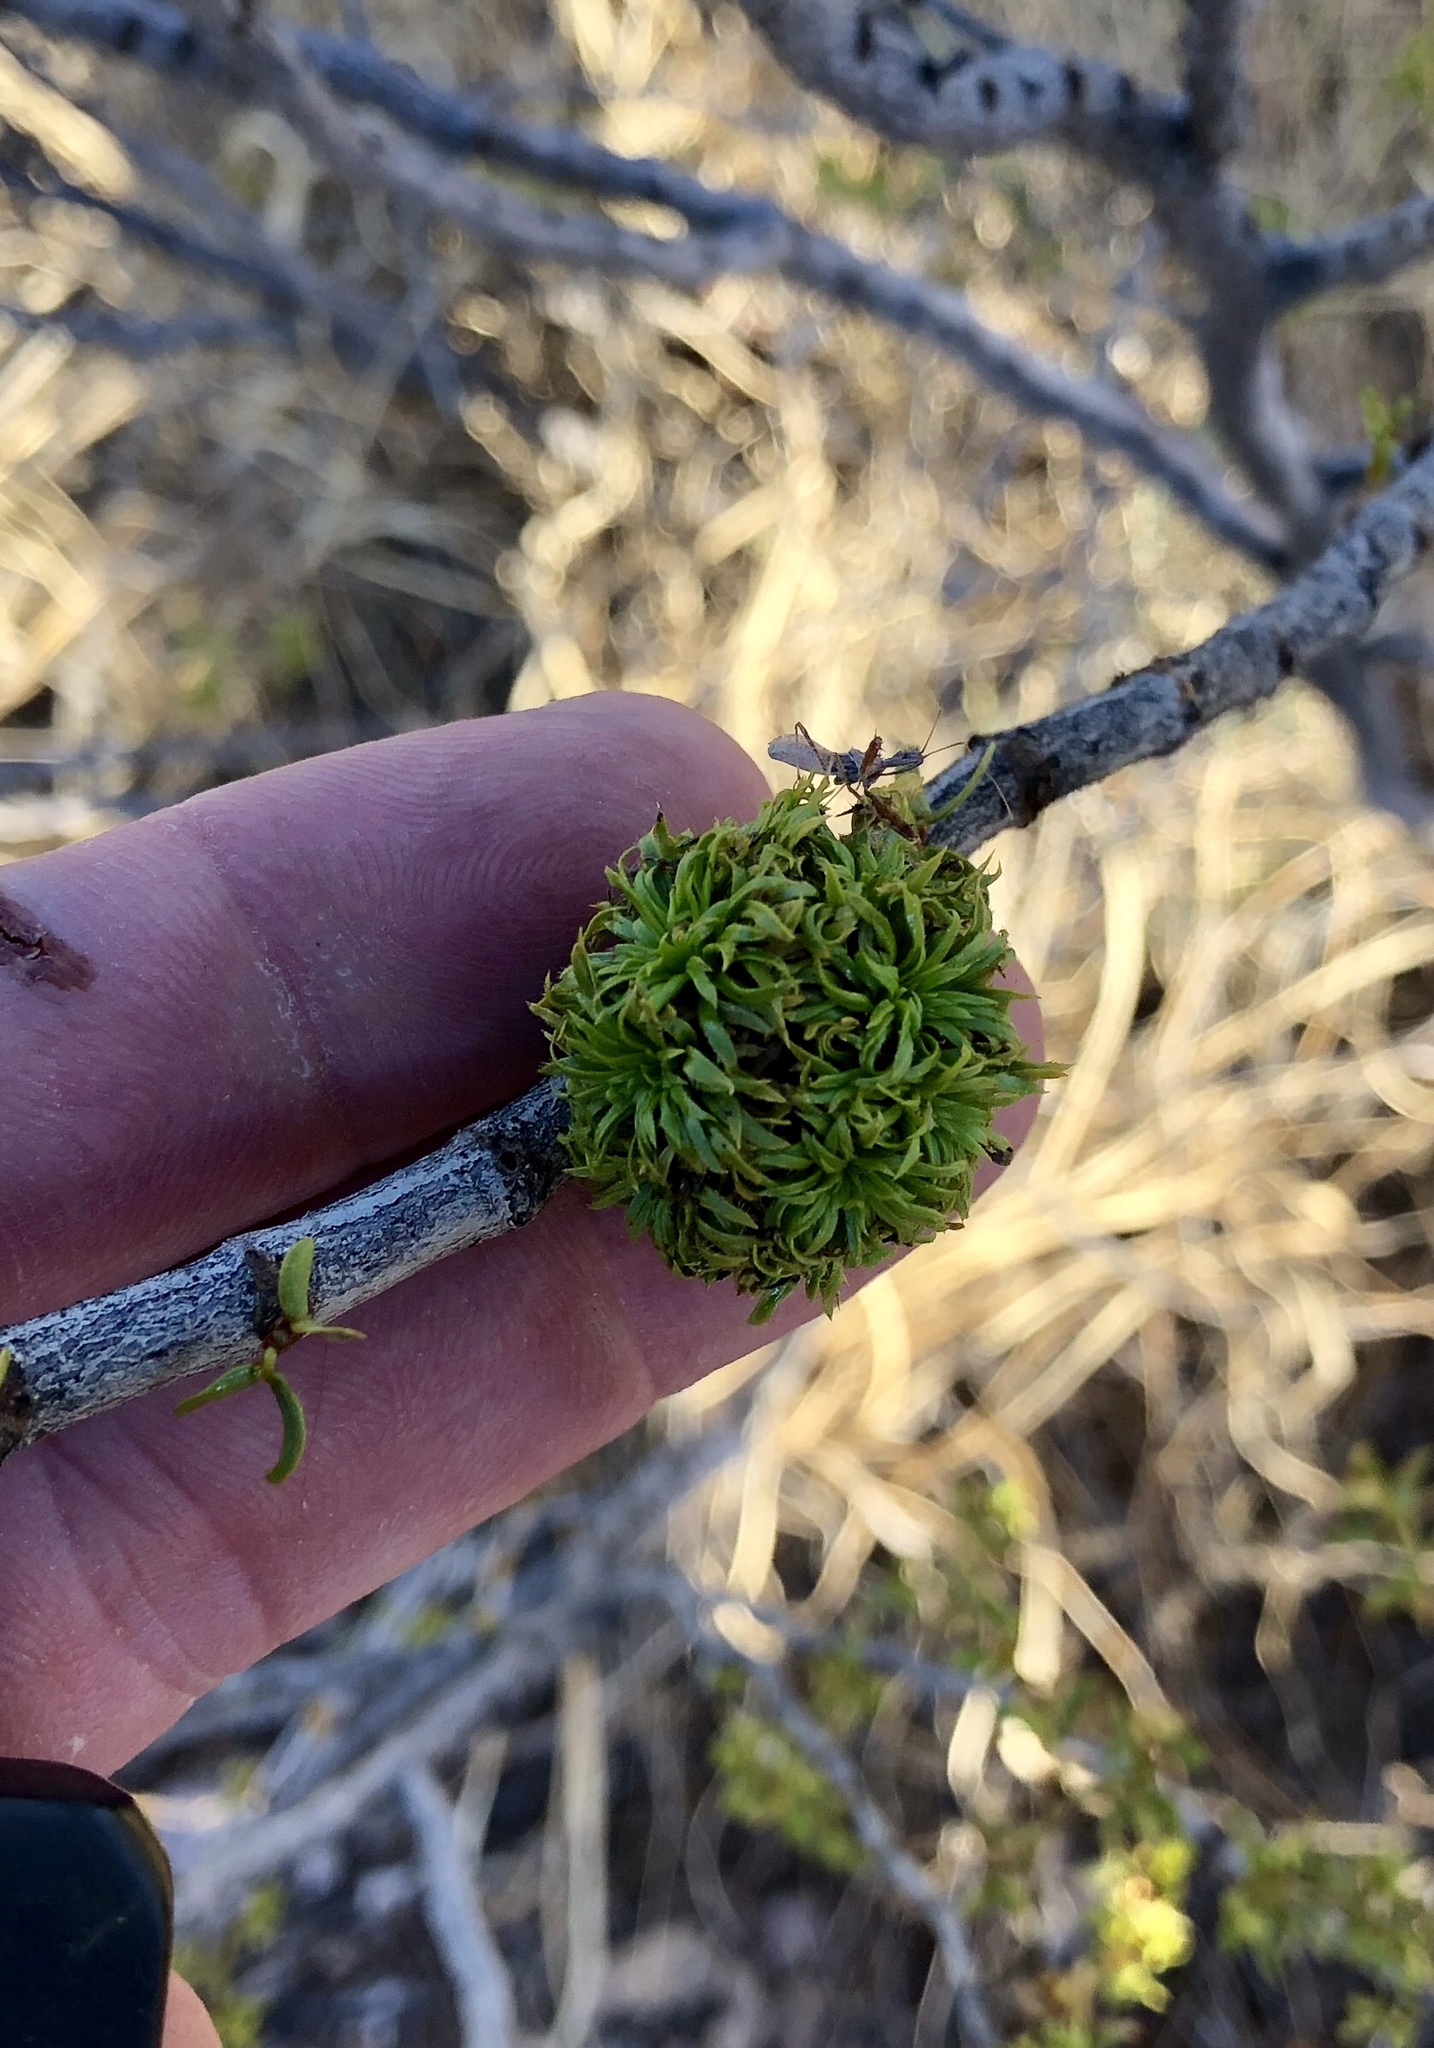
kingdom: Animalia
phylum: Arthropoda
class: Insecta
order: Diptera
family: Cecidomyiidae
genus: Asphondylia
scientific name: Asphondylia auripila
